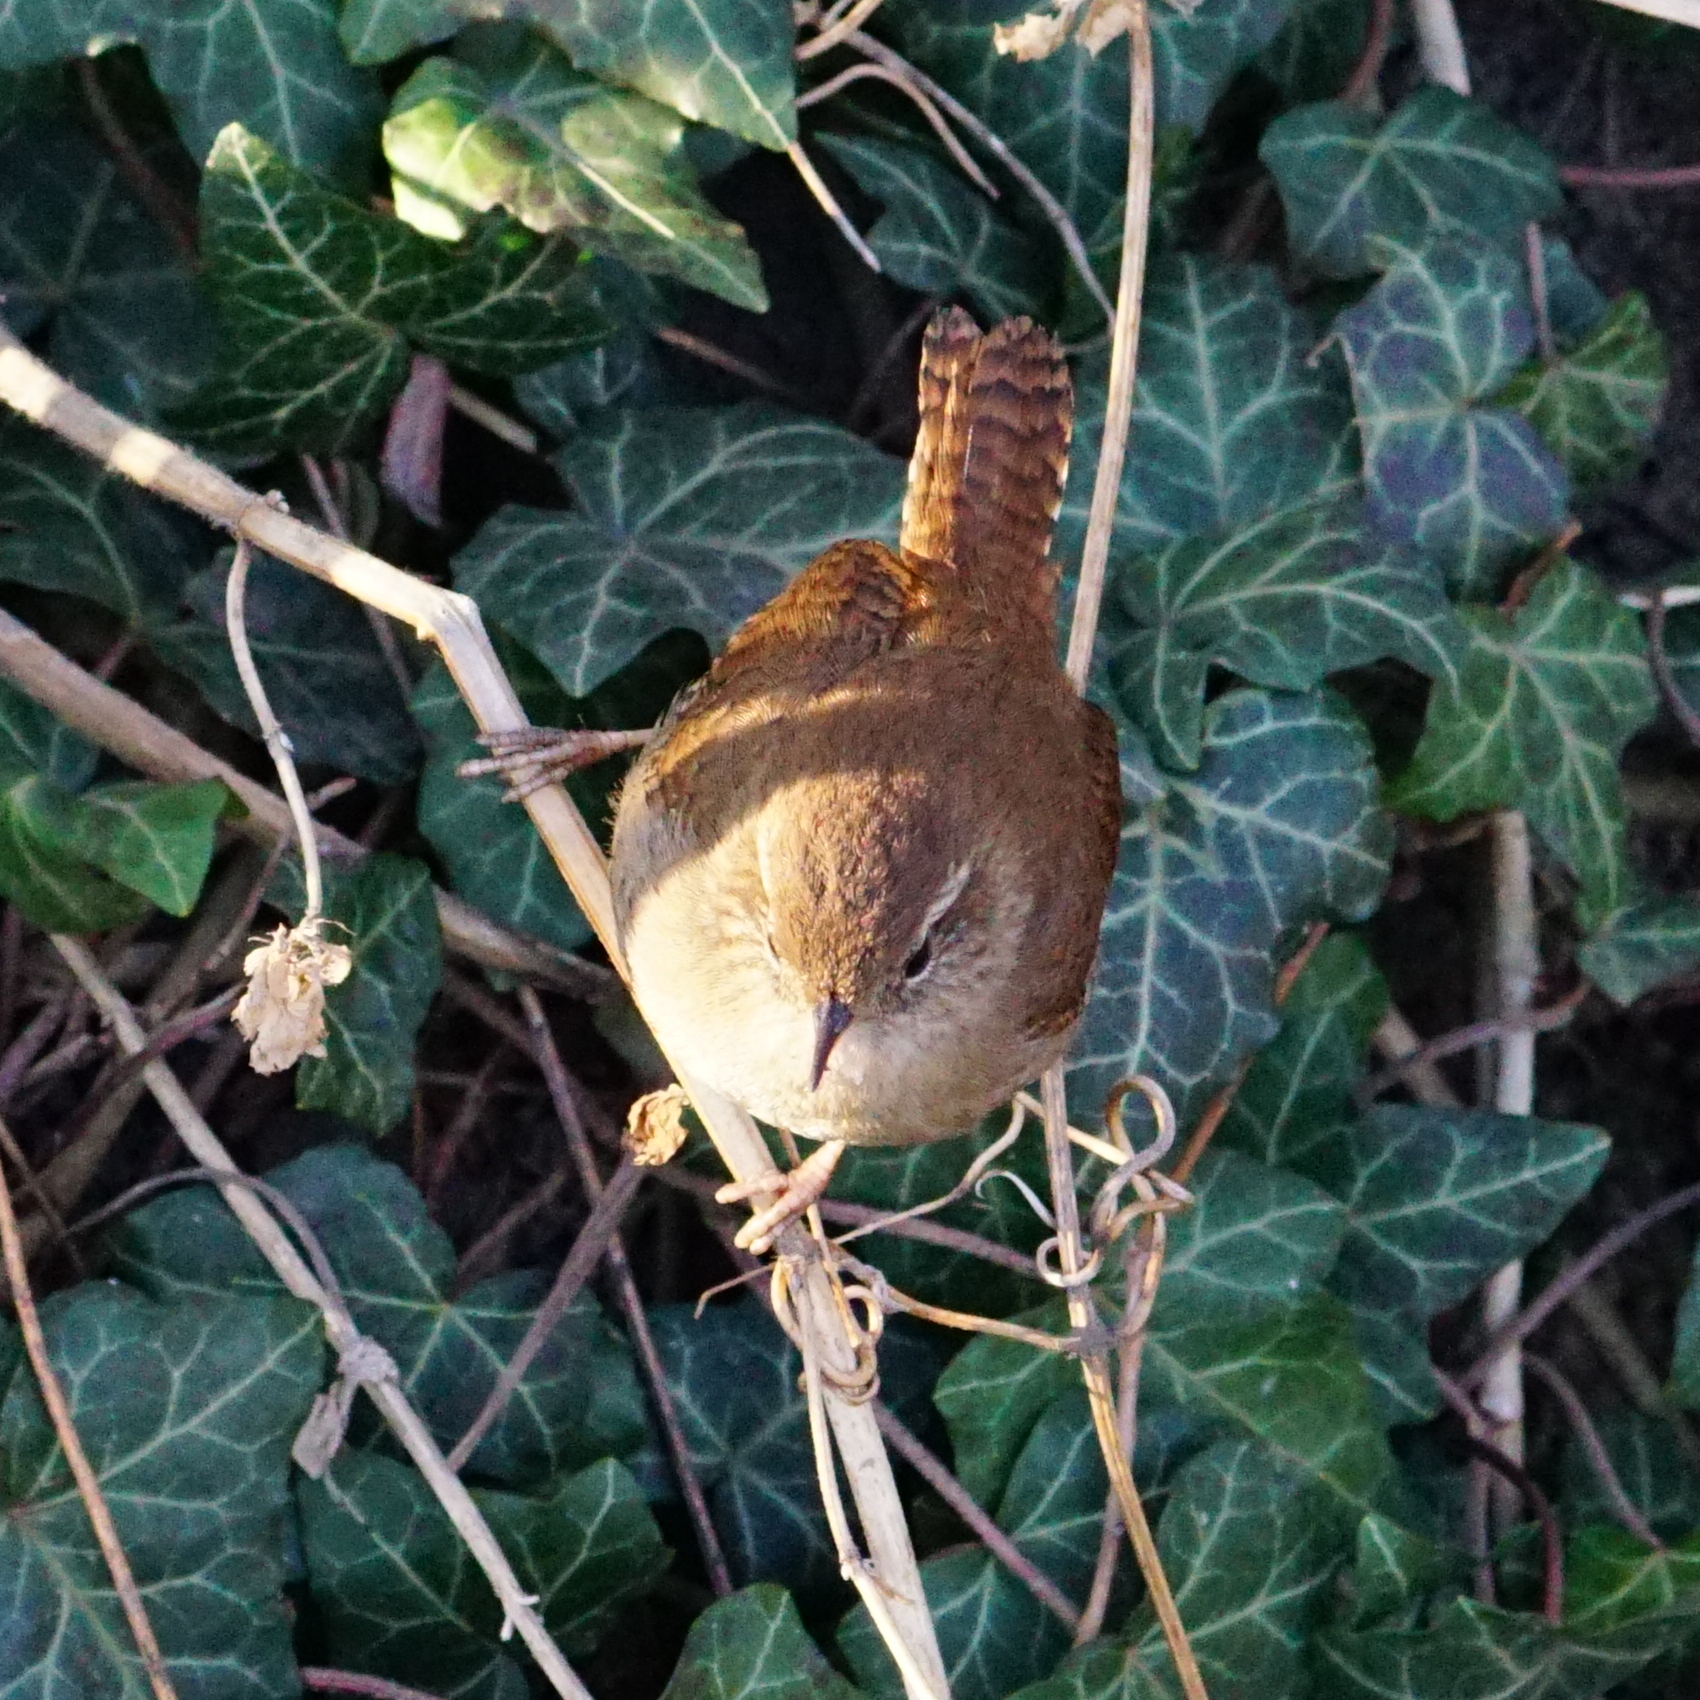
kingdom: Animalia
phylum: Chordata
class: Aves
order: Passeriformes
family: Troglodytidae
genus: Troglodytes
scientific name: Troglodytes troglodytes
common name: Eurasian wren
